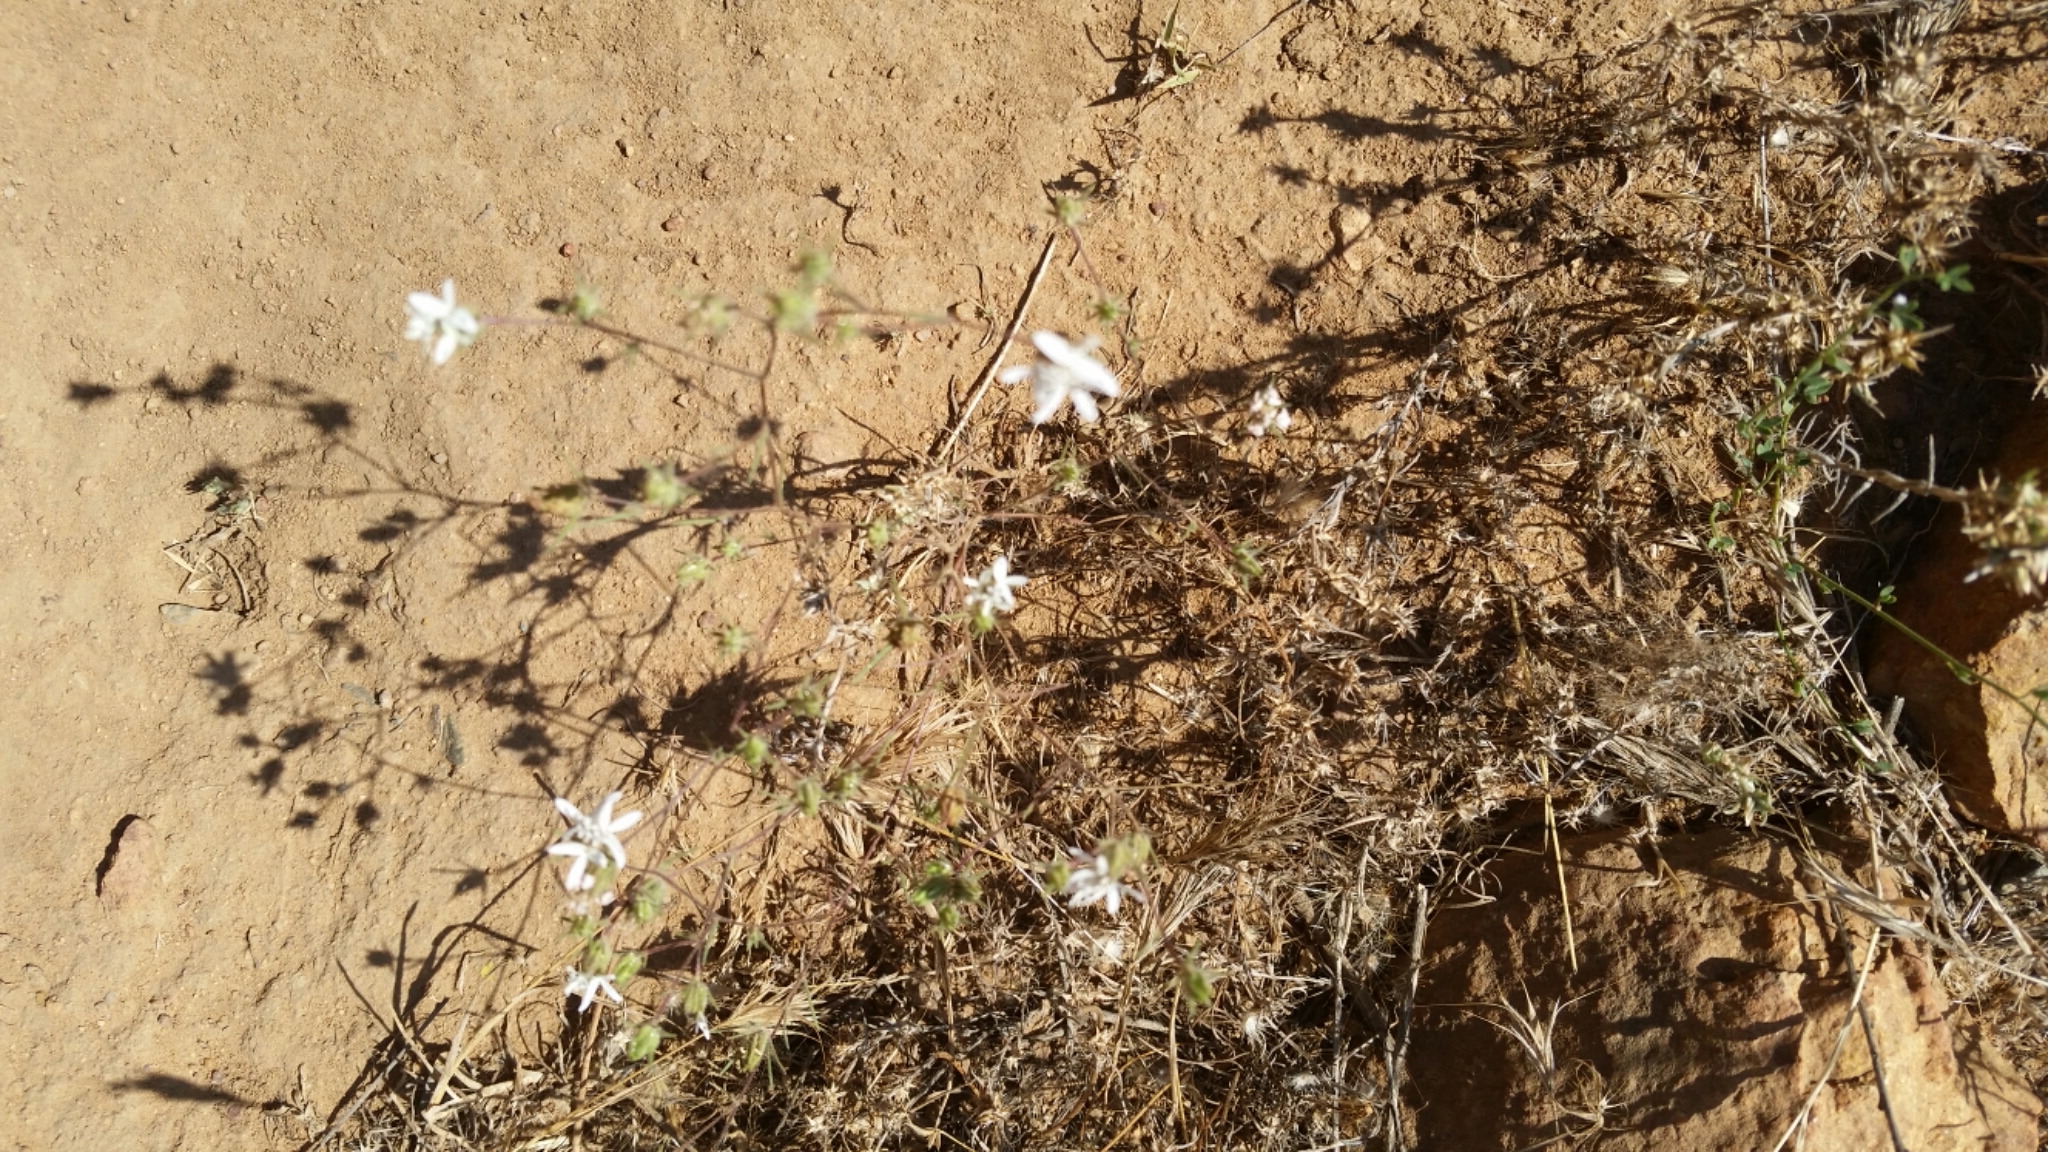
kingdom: Plantae
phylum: Tracheophyta
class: Magnoliopsida
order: Asterales
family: Asteraceae
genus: Osmadenia
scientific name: Osmadenia tenella
